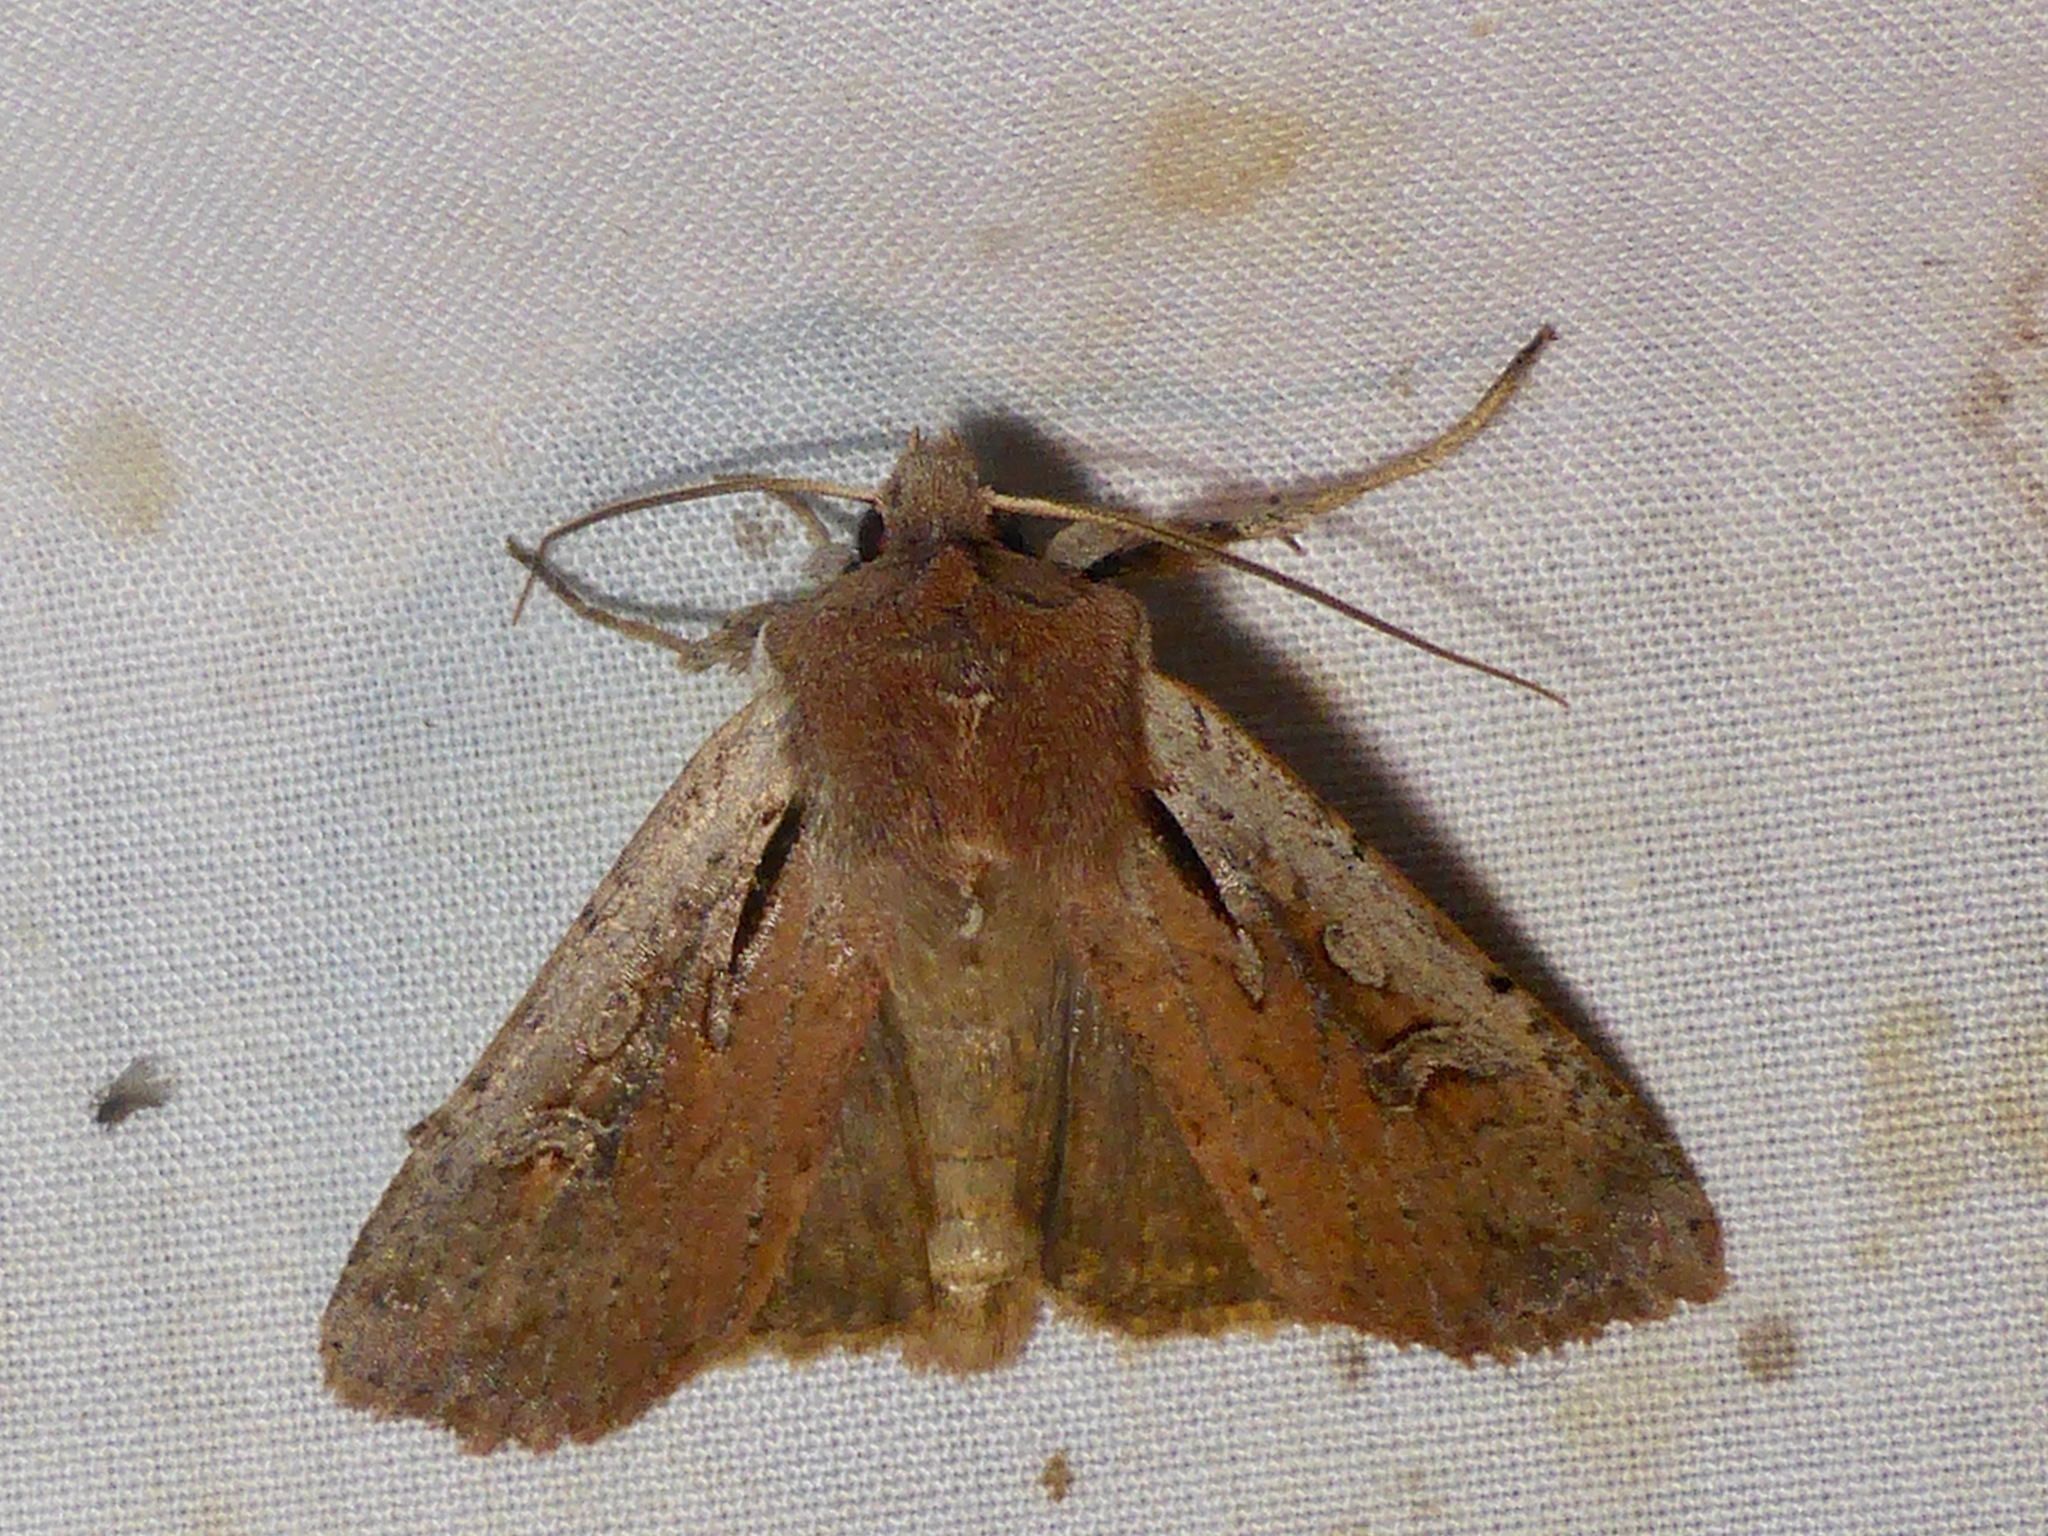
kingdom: Animalia
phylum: Arthropoda
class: Insecta
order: Lepidoptera
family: Noctuidae
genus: Ichneutica
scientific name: Ichneutica atristriga
